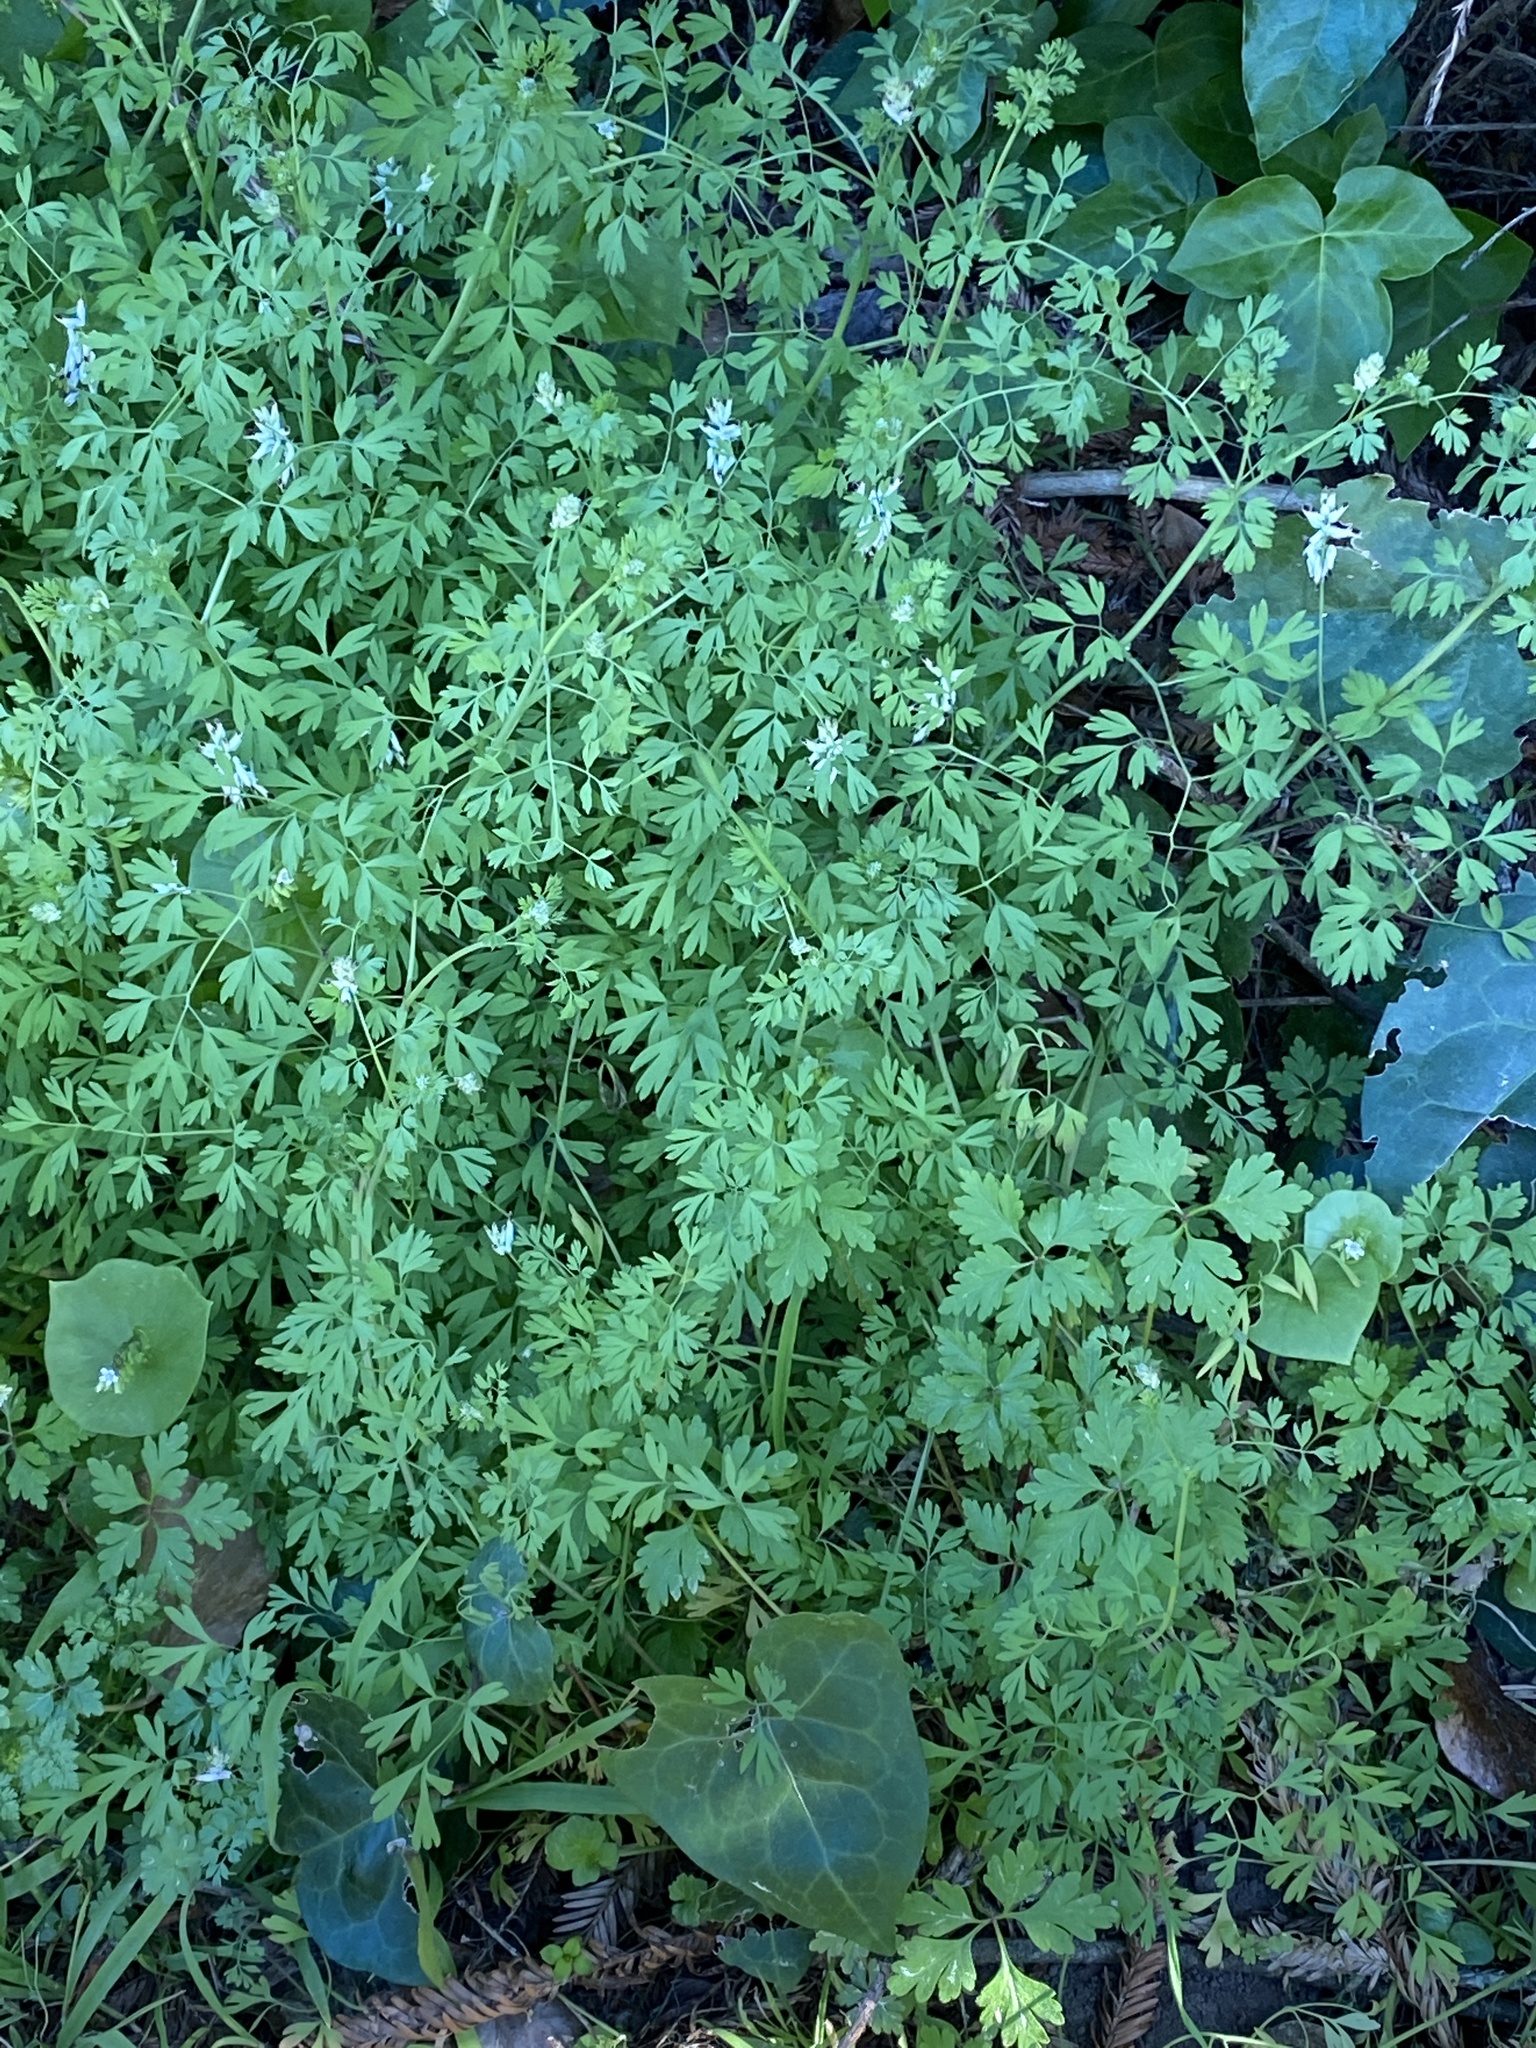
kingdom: Plantae
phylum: Tracheophyta
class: Magnoliopsida
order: Ranunculales
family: Papaveraceae
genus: Fumaria
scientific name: Fumaria capreolata
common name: White ramping-fumitory
